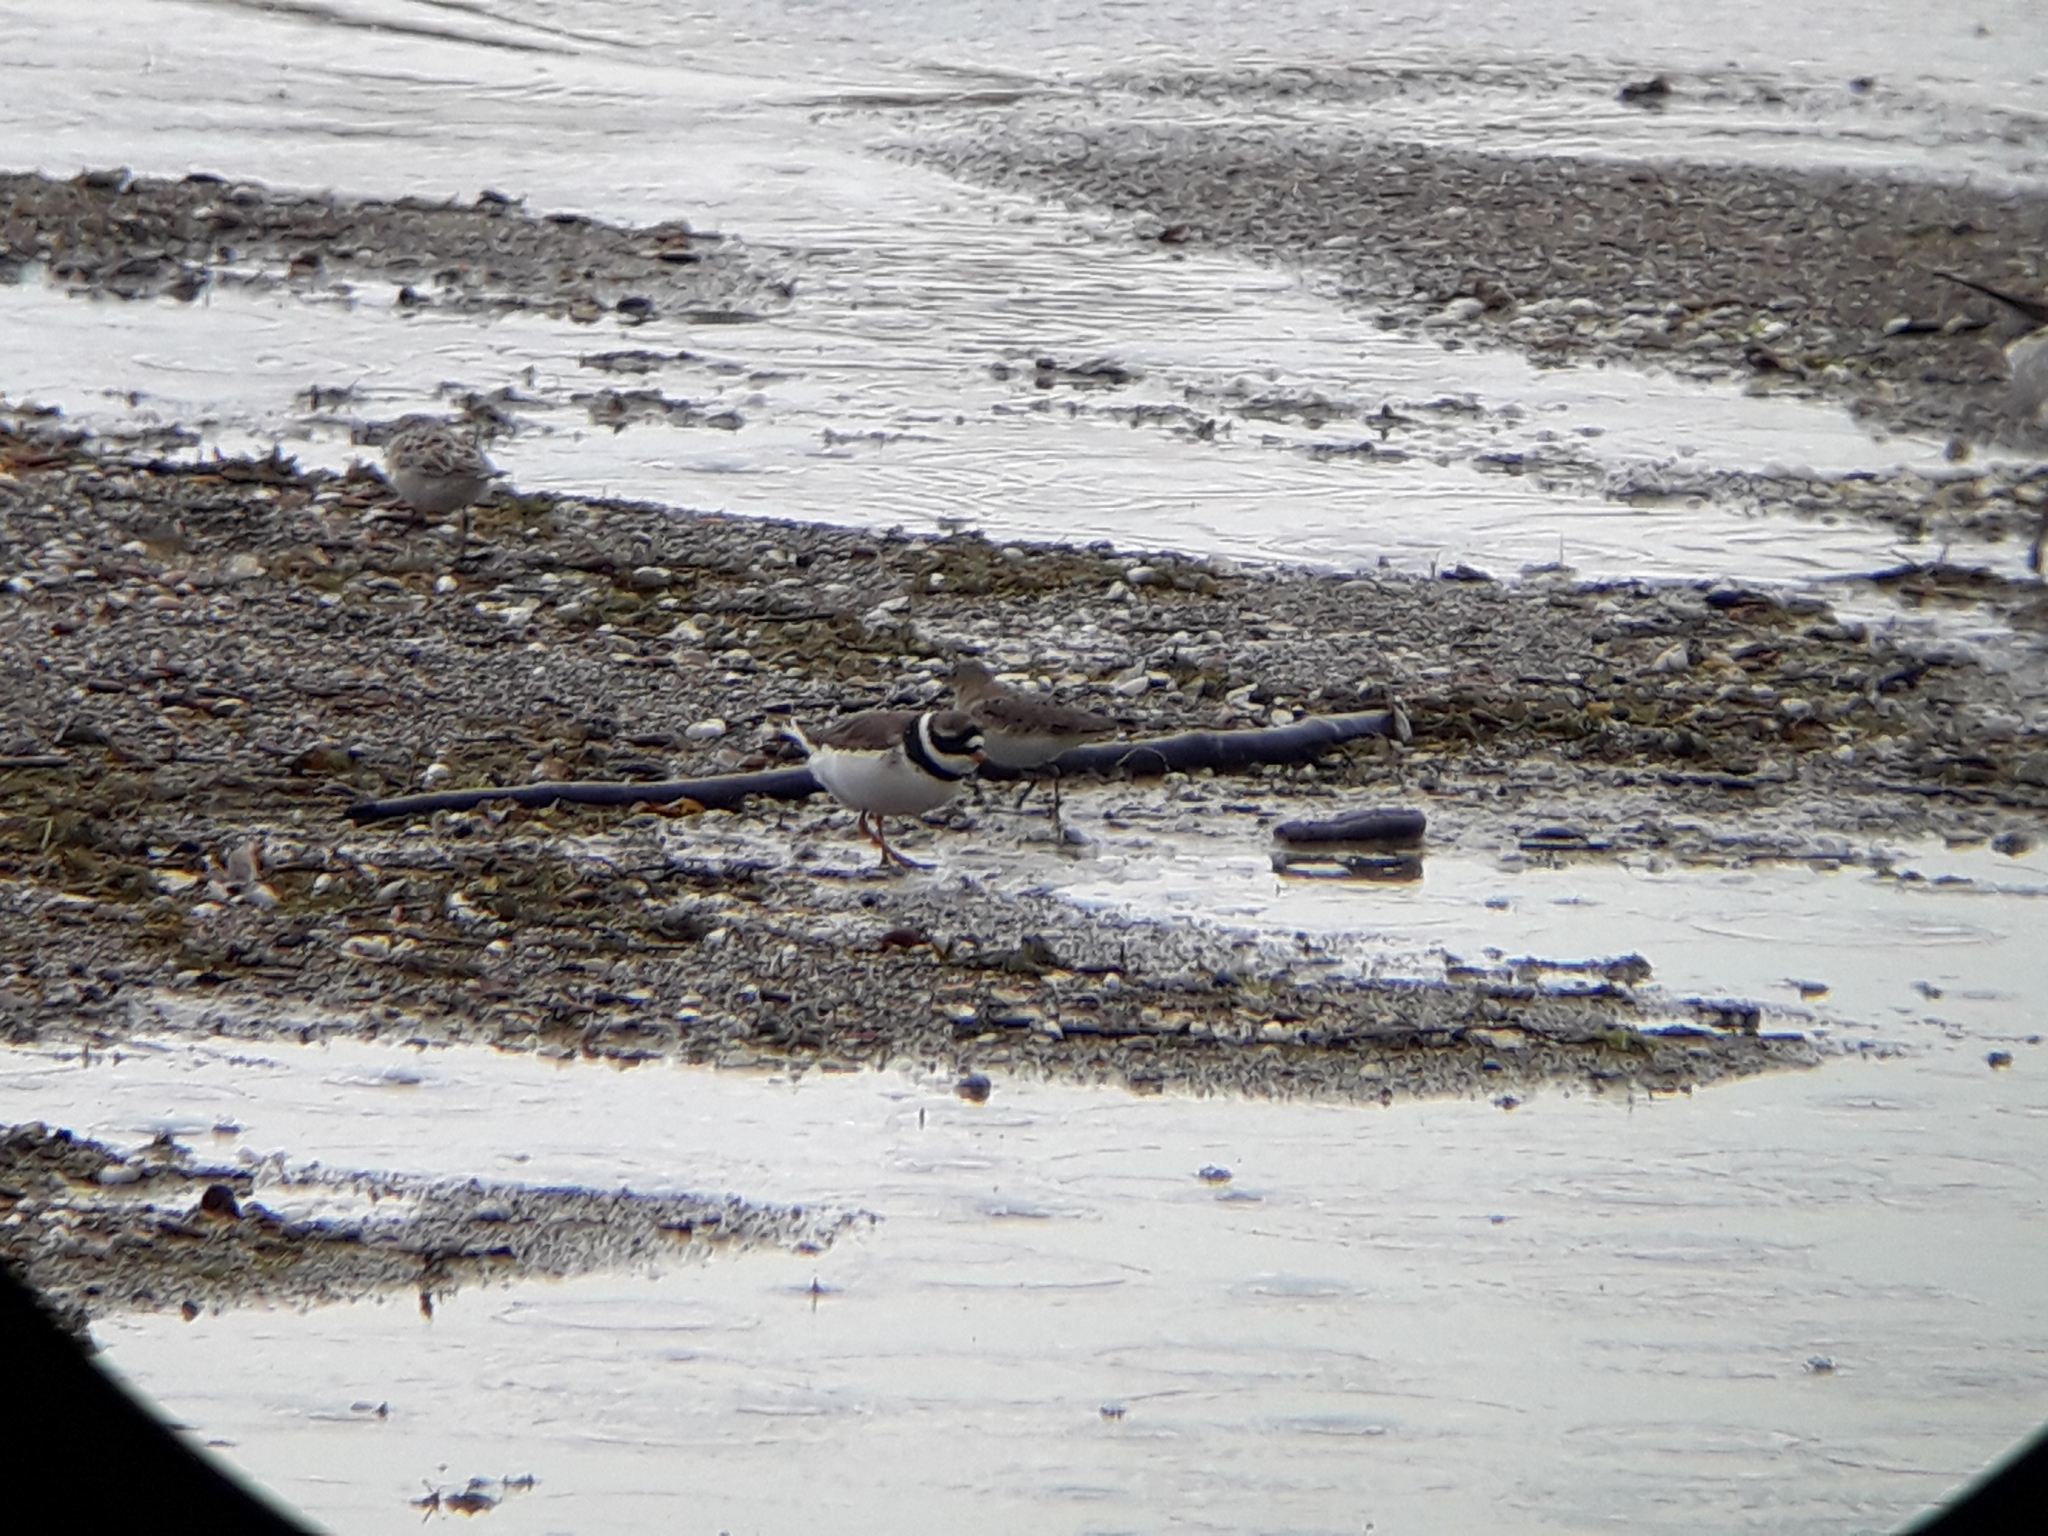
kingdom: Animalia
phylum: Chordata
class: Aves
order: Charadriiformes
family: Charadriidae
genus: Charadrius
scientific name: Charadrius hiaticula
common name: Common ringed plover
